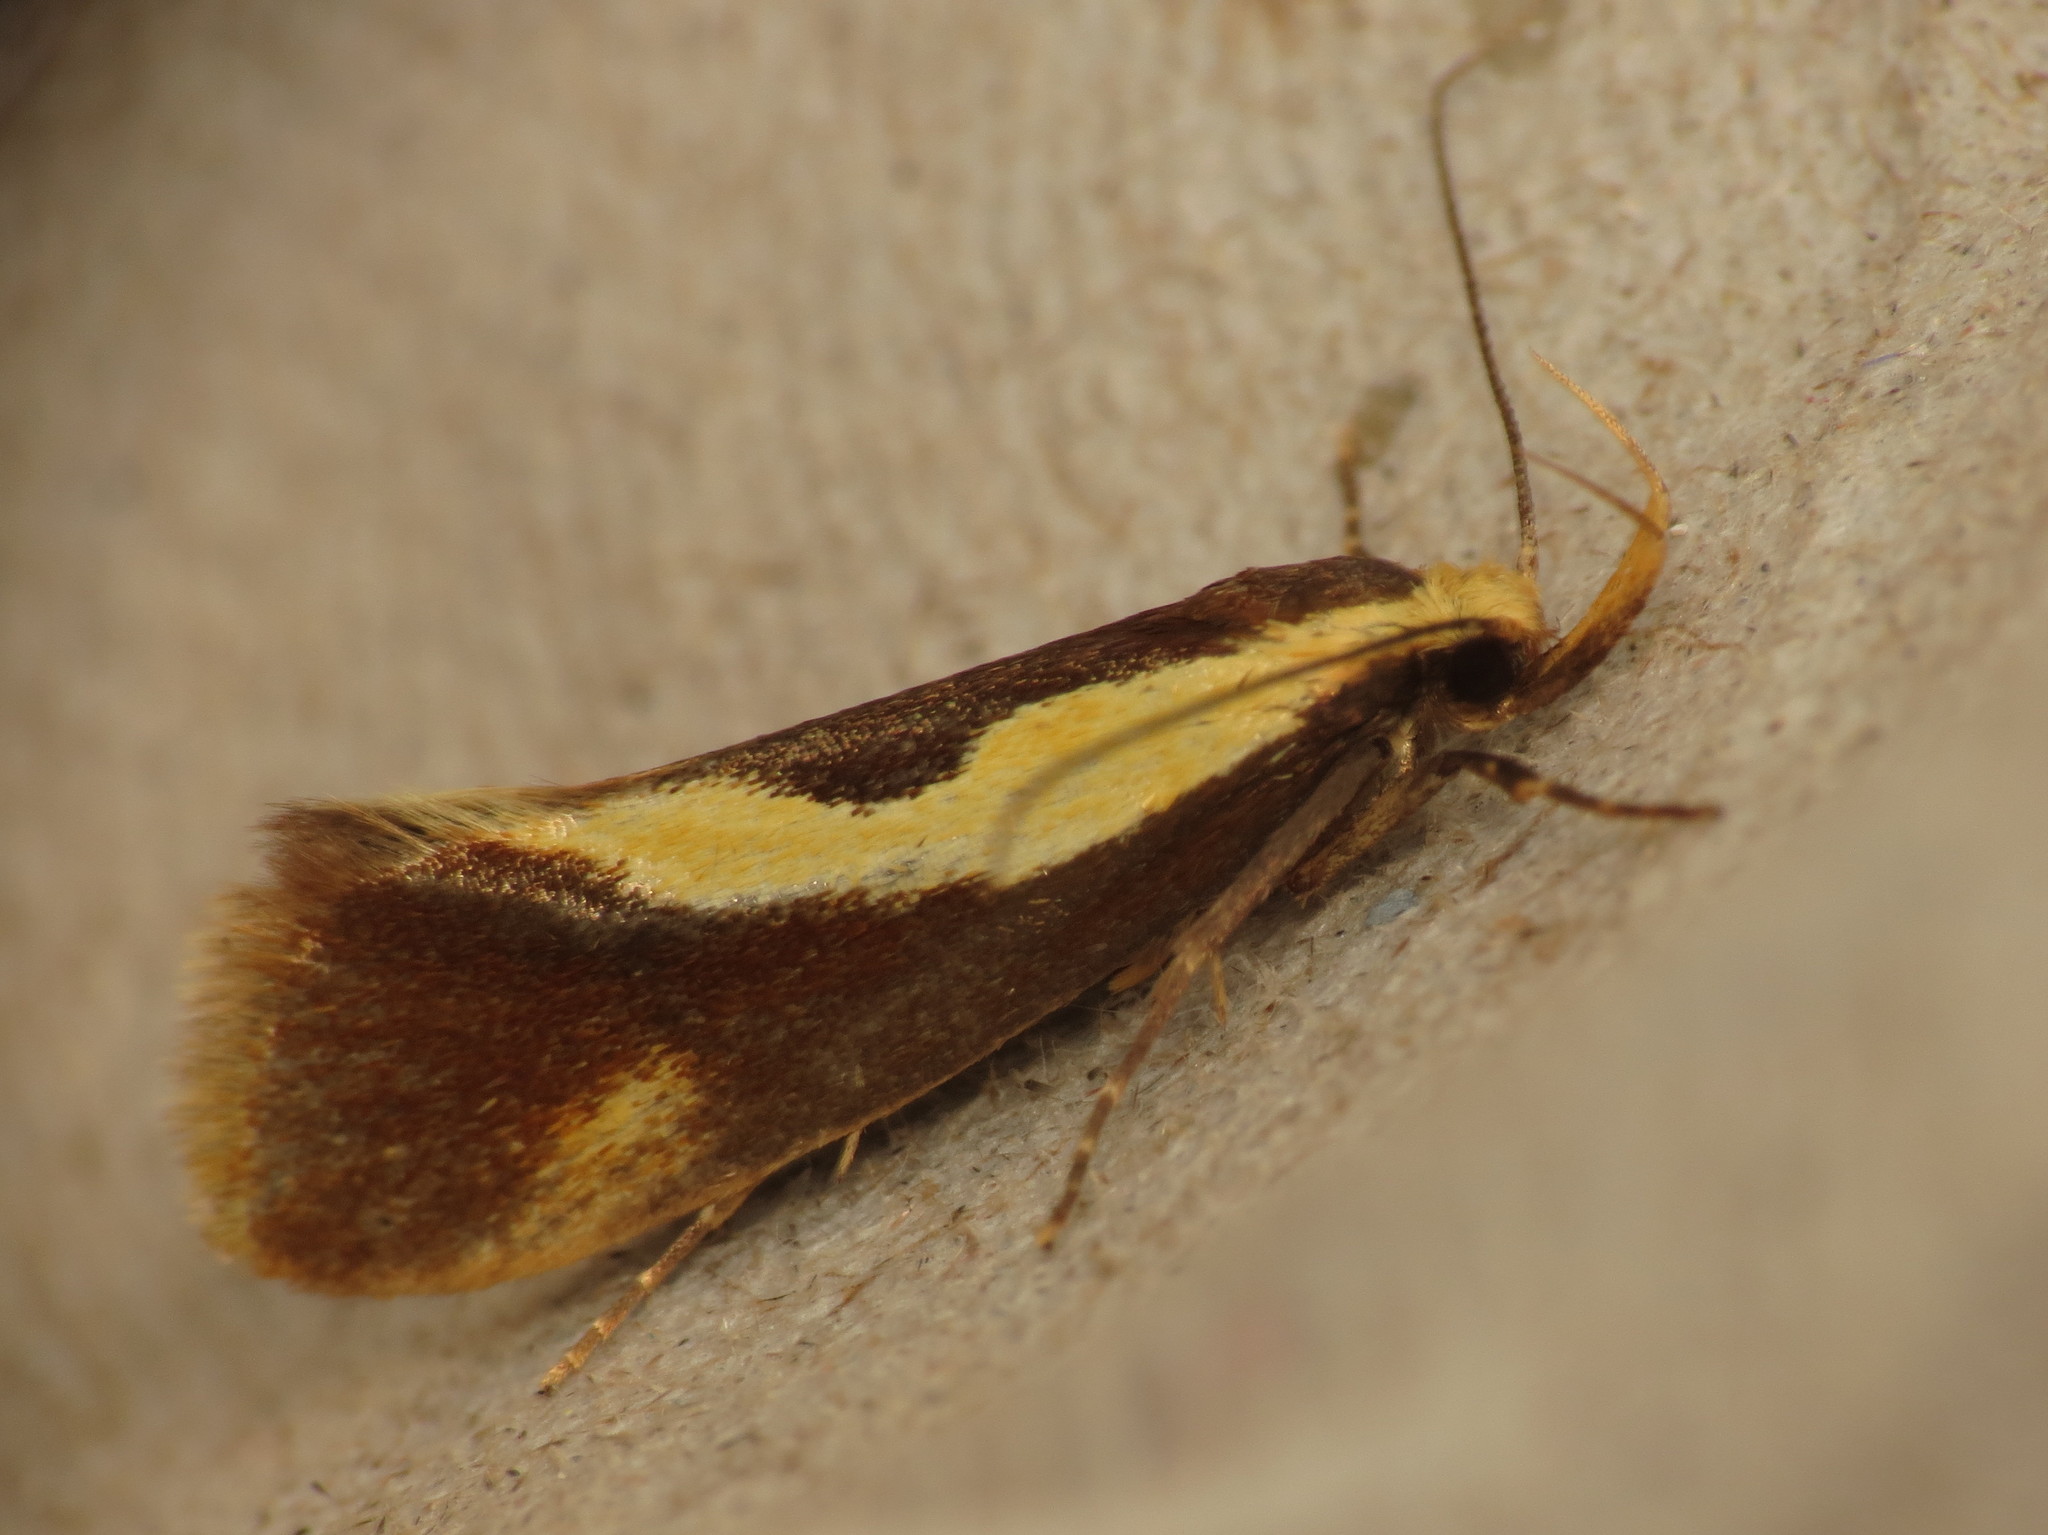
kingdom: Animalia
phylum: Arthropoda
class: Insecta
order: Lepidoptera
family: Oecophoridae
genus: Harpella
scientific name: Harpella forficella
